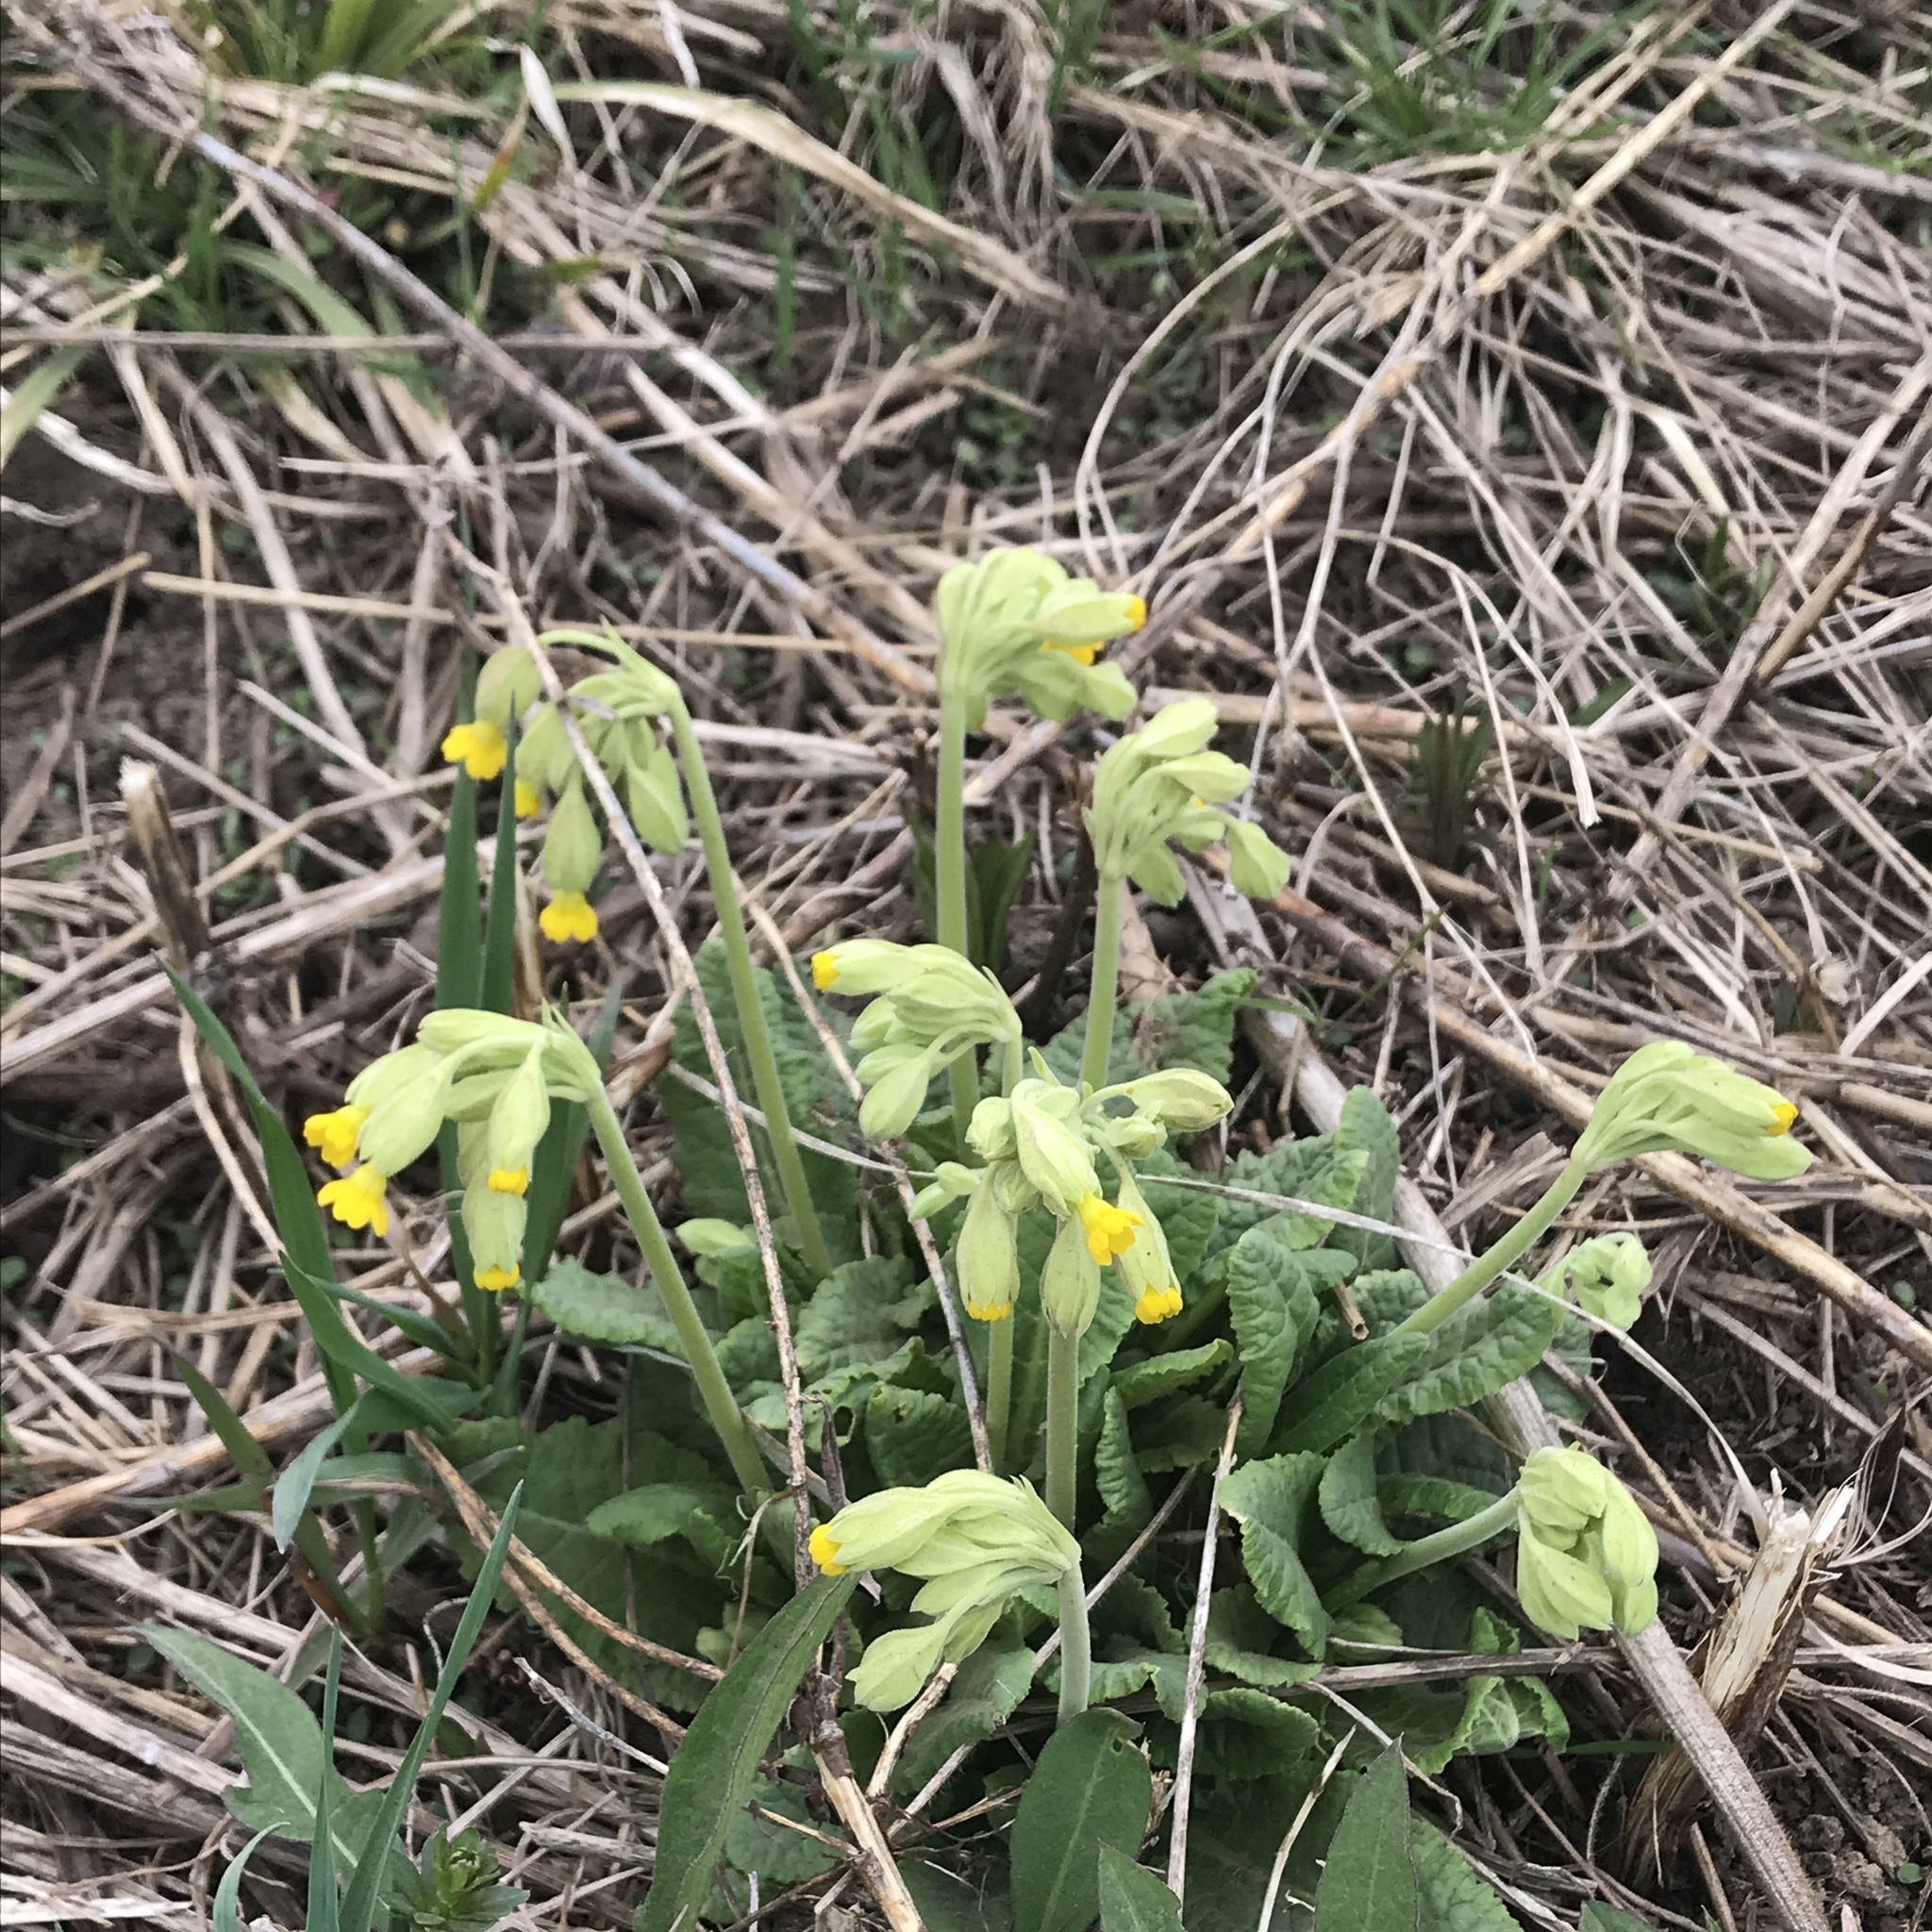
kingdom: Plantae
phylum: Tracheophyta
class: Magnoliopsida
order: Ericales
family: Primulaceae
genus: Primula
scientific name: Primula veris
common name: Cowslip
